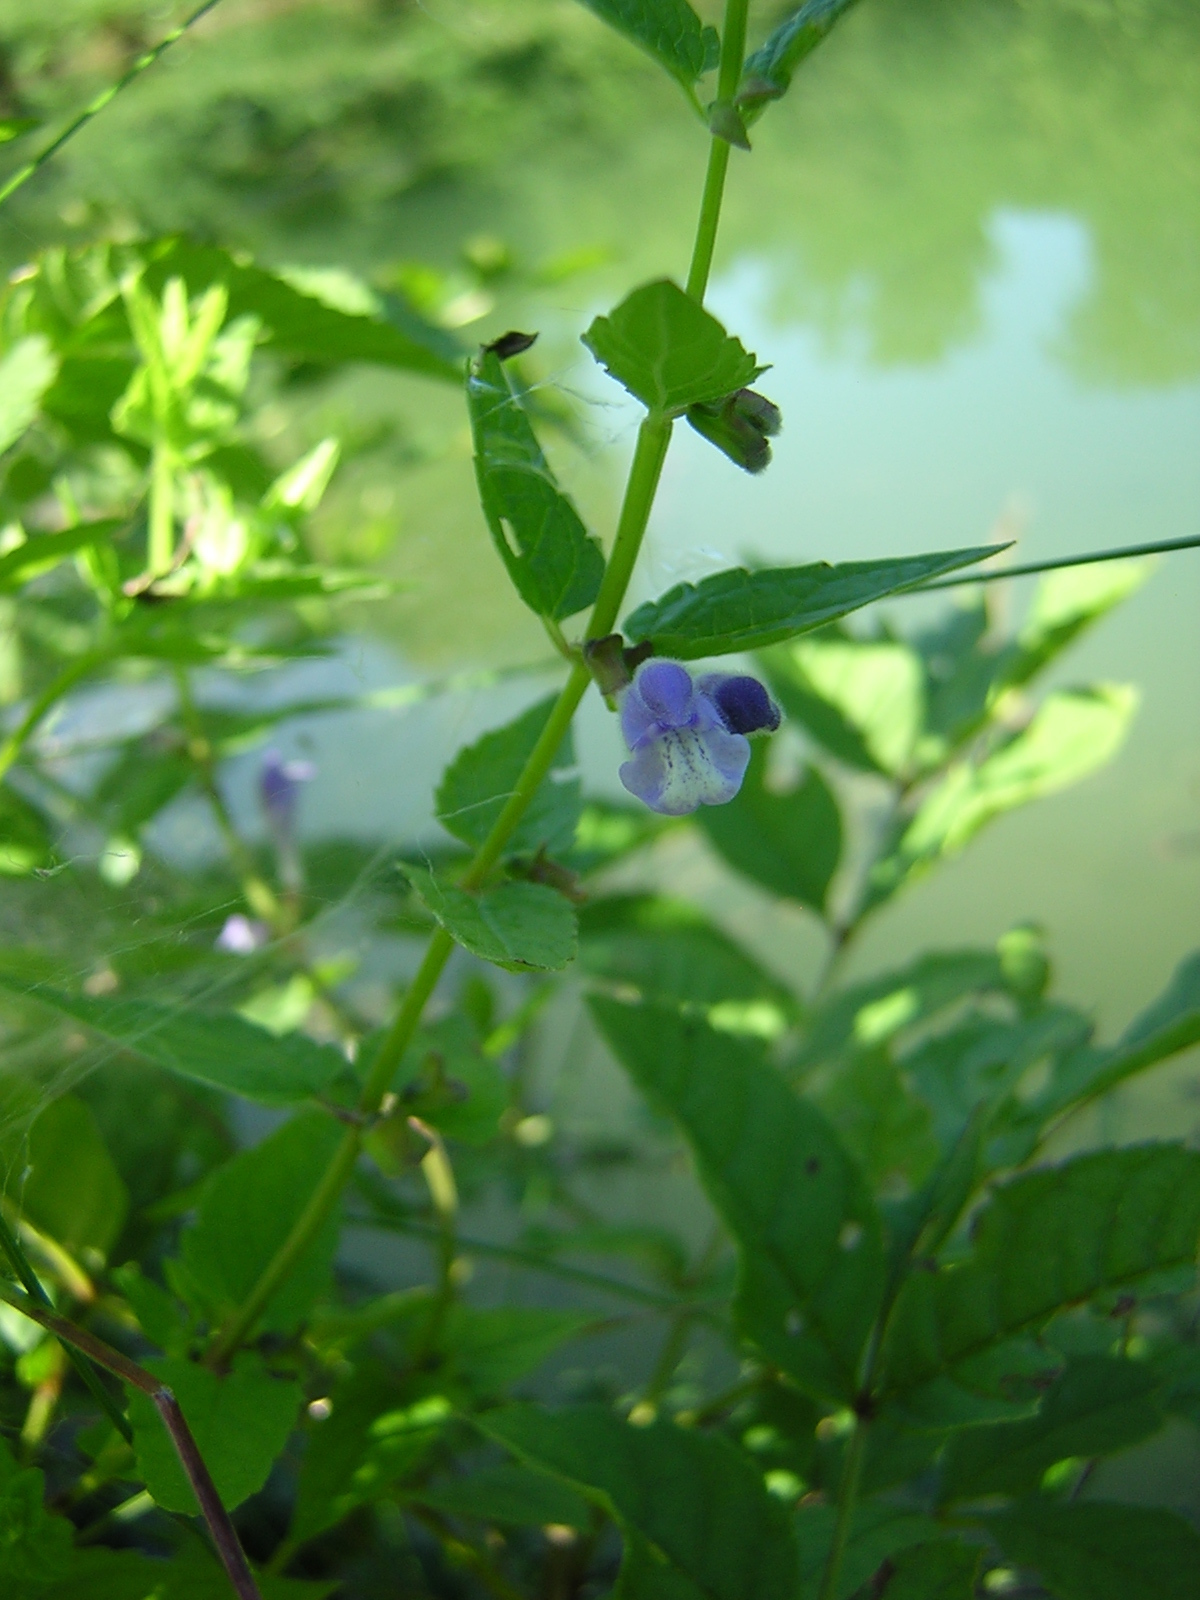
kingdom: Plantae
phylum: Tracheophyta
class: Magnoliopsida
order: Lamiales
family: Lamiaceae
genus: Scutellaria
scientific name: Scutellaria galericulata
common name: Skullcap
